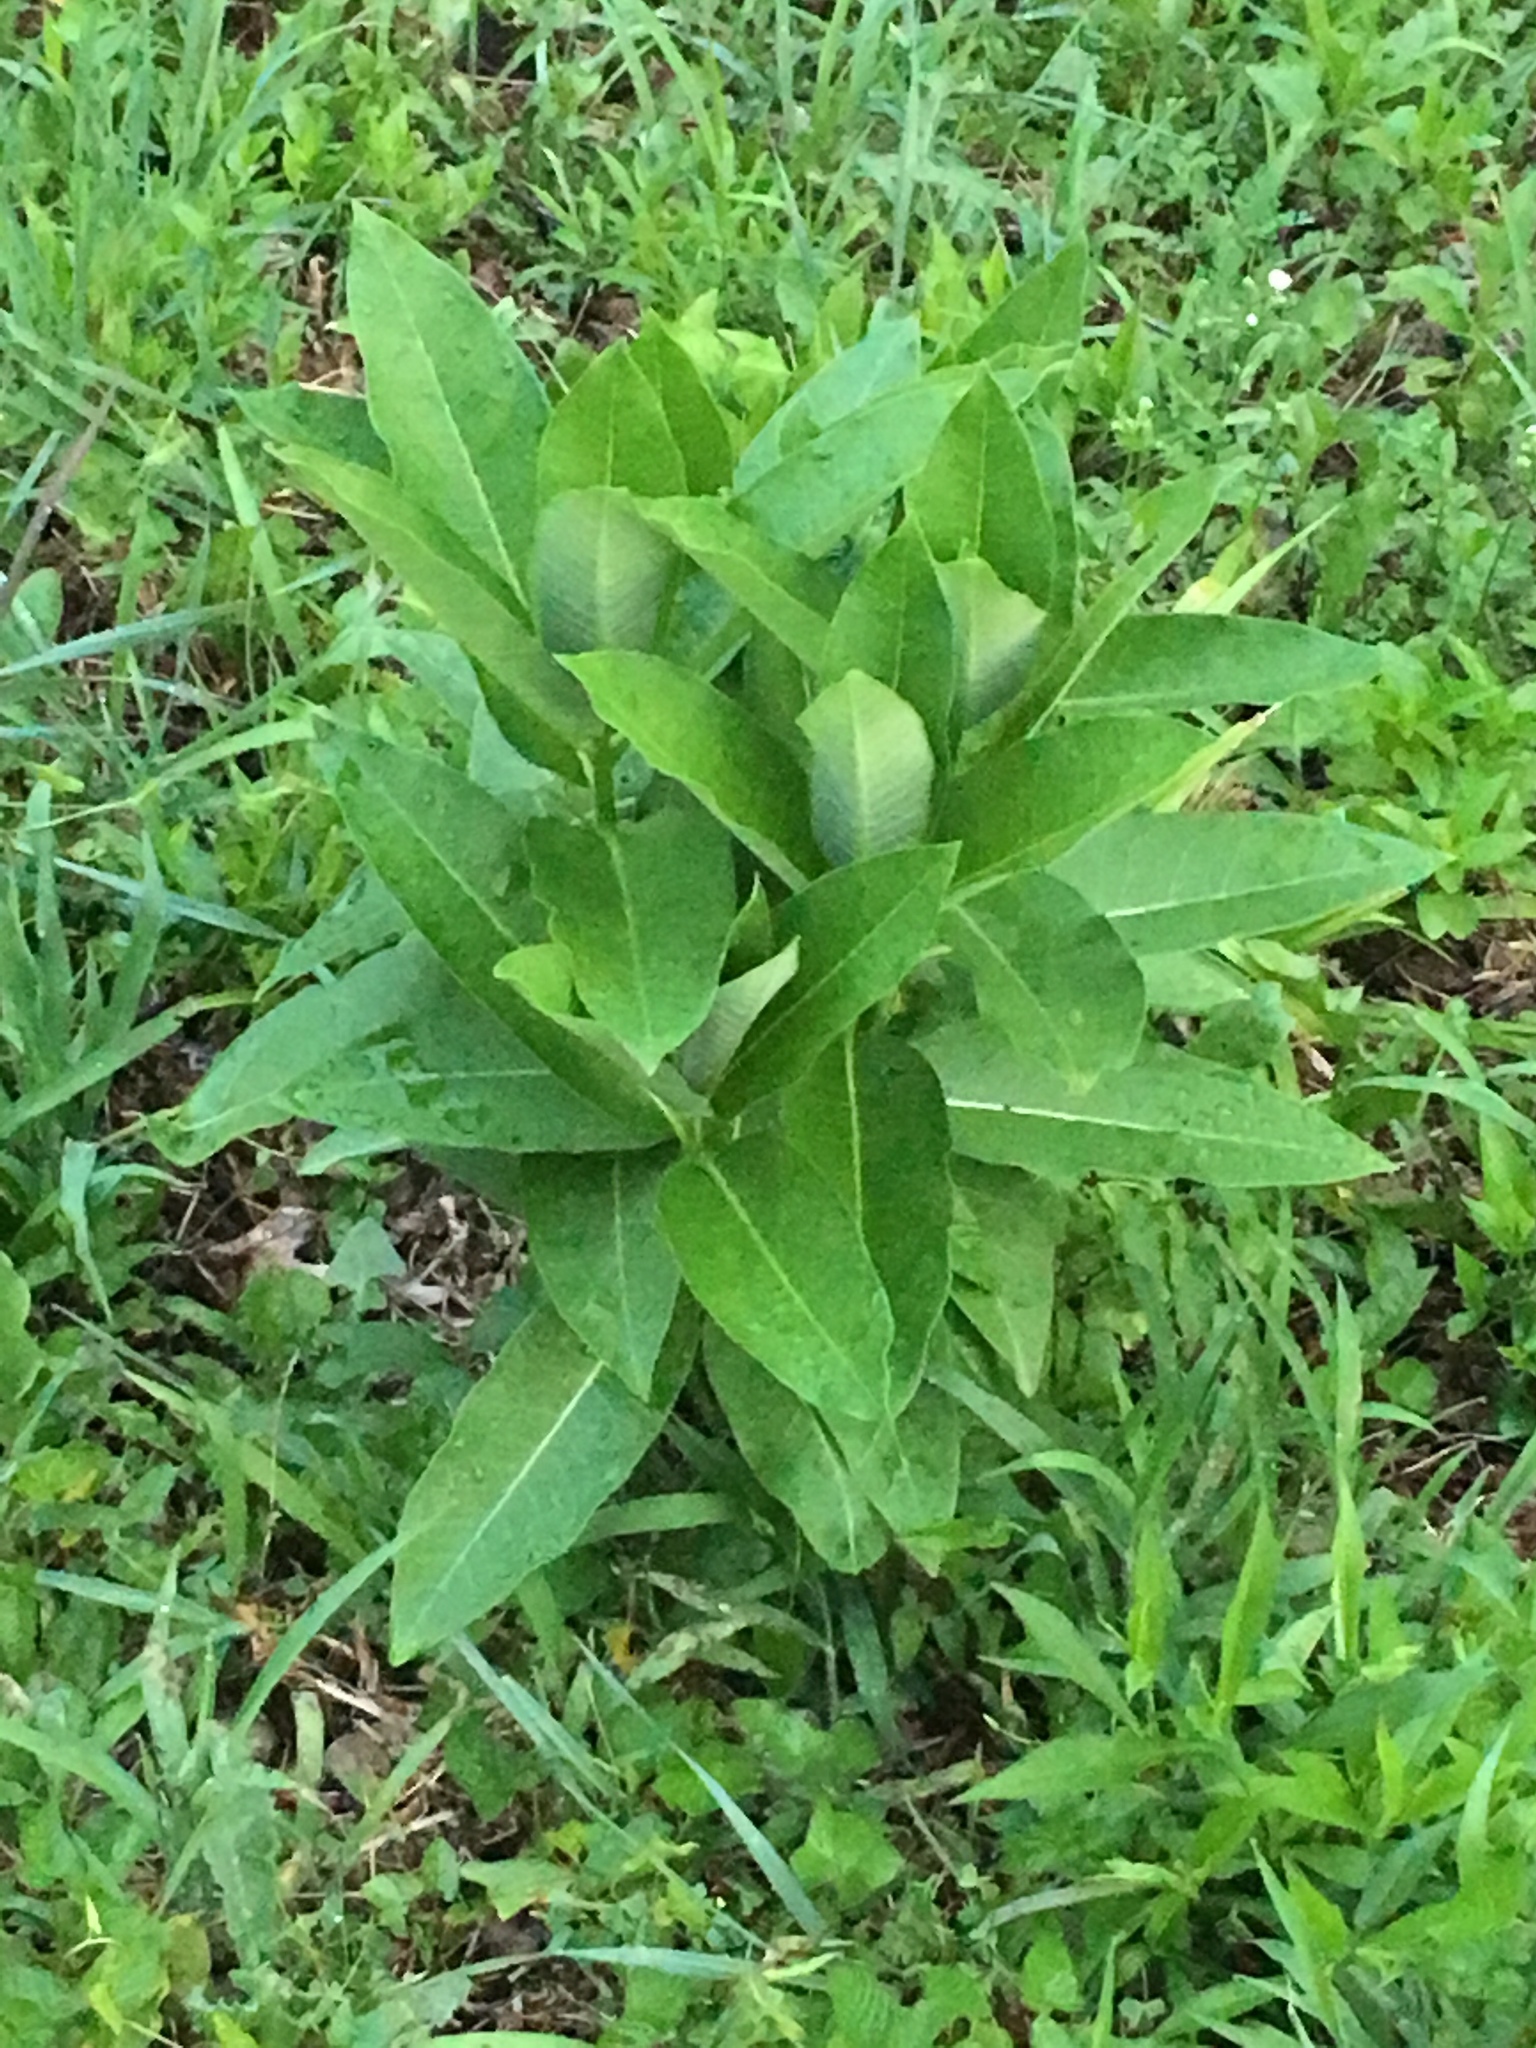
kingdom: Plantae
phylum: Tracheophyta
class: Magnoliopsida
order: Gentianales
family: Apocynaceae
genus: Asclepias
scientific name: Asclepias syriaca
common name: Common milkweed
